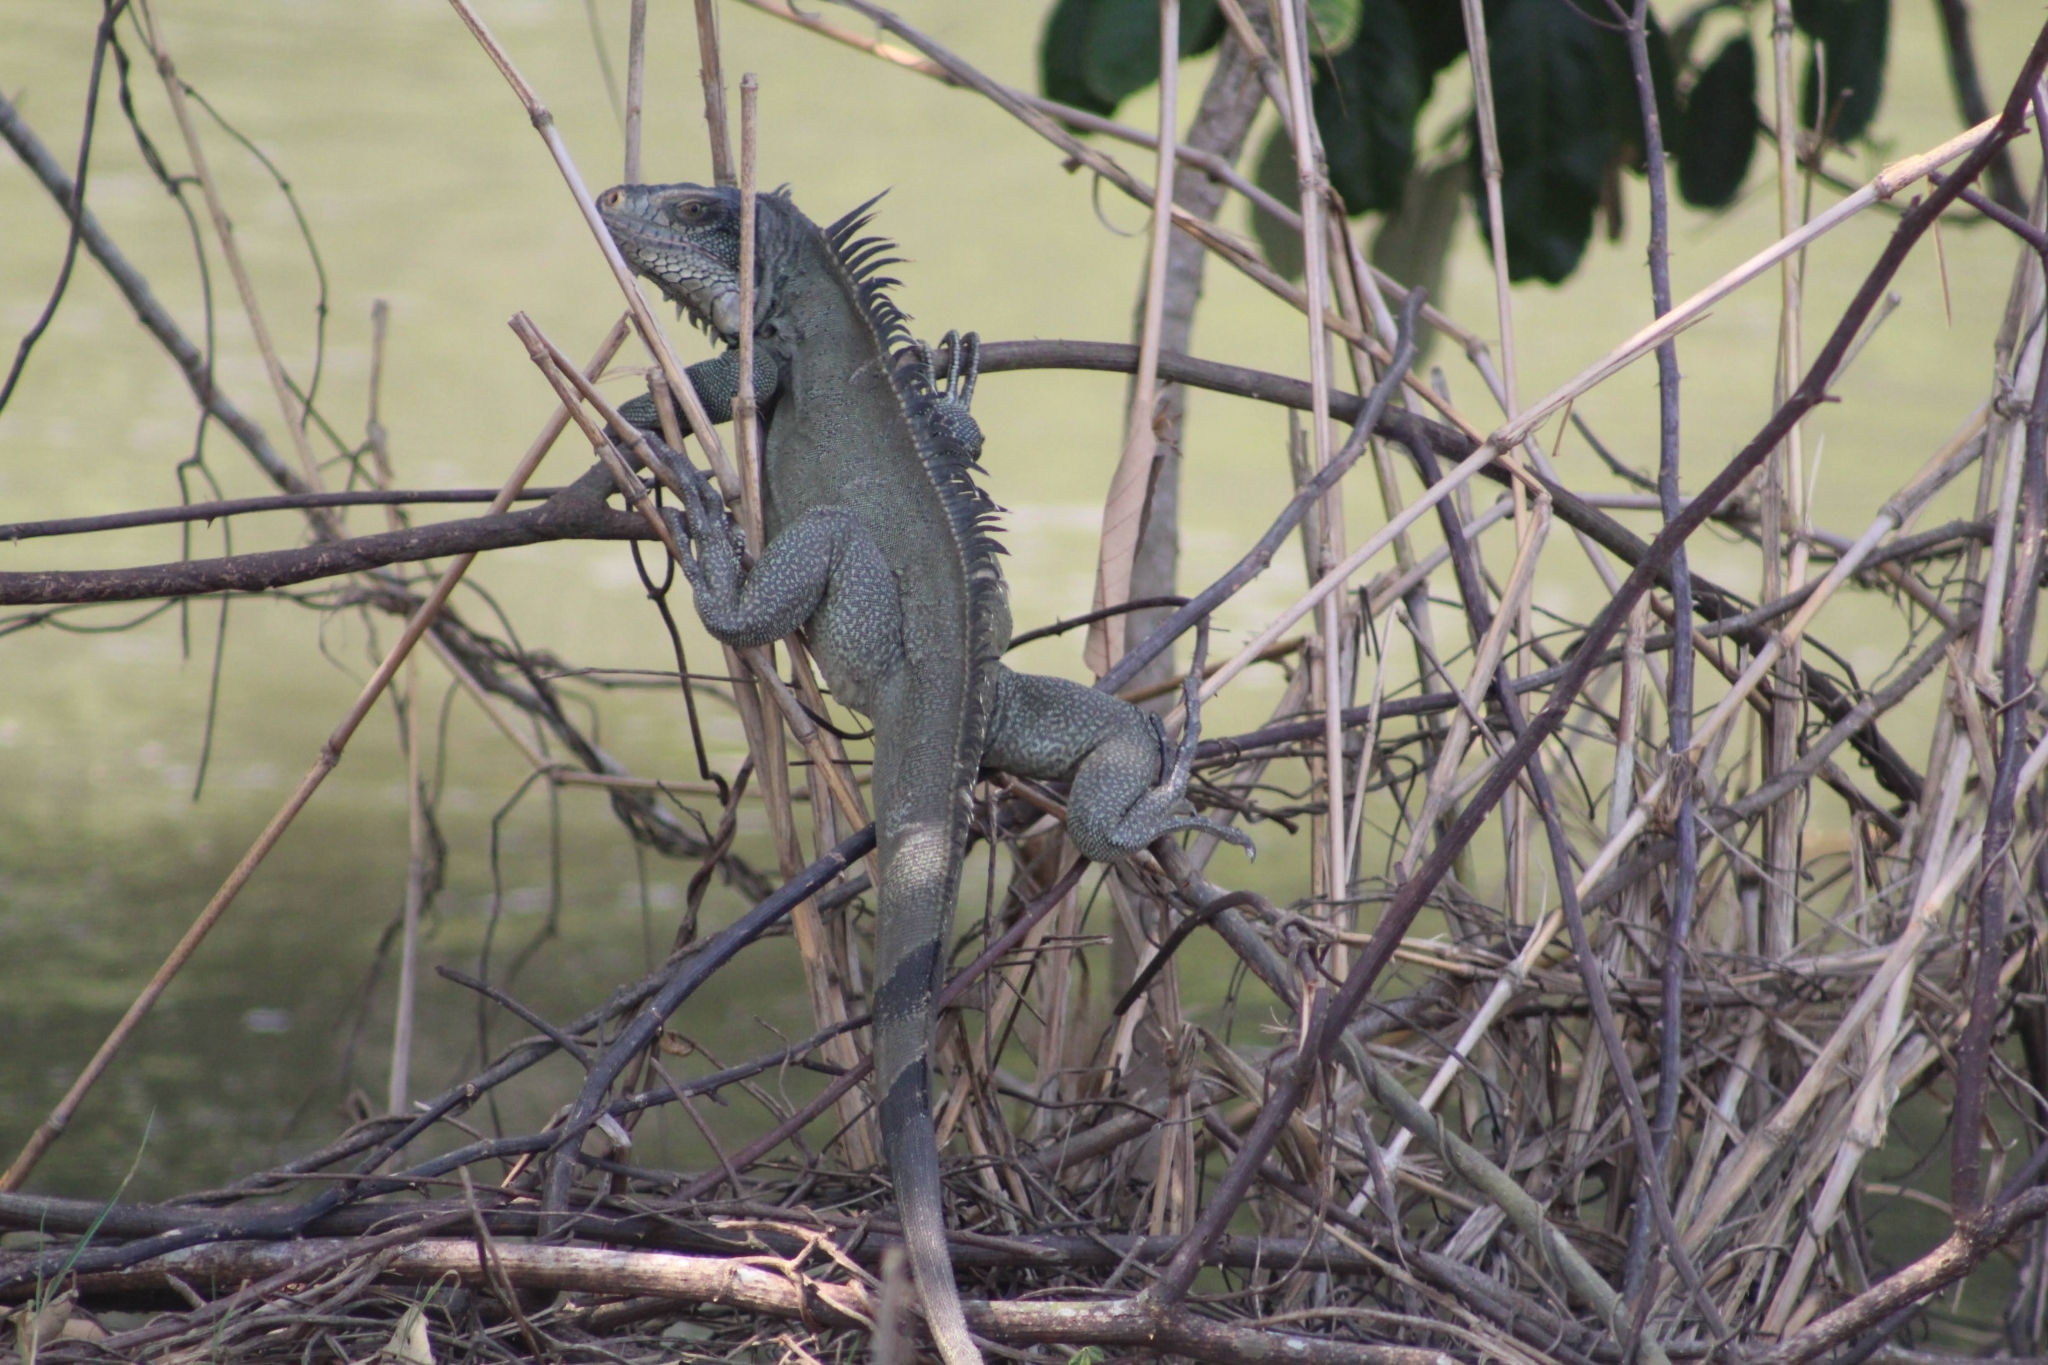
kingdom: Animalia
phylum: Chordata
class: Squamata
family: Iguanidae
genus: Iguana
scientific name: Iguana iguana
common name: Green iguana
